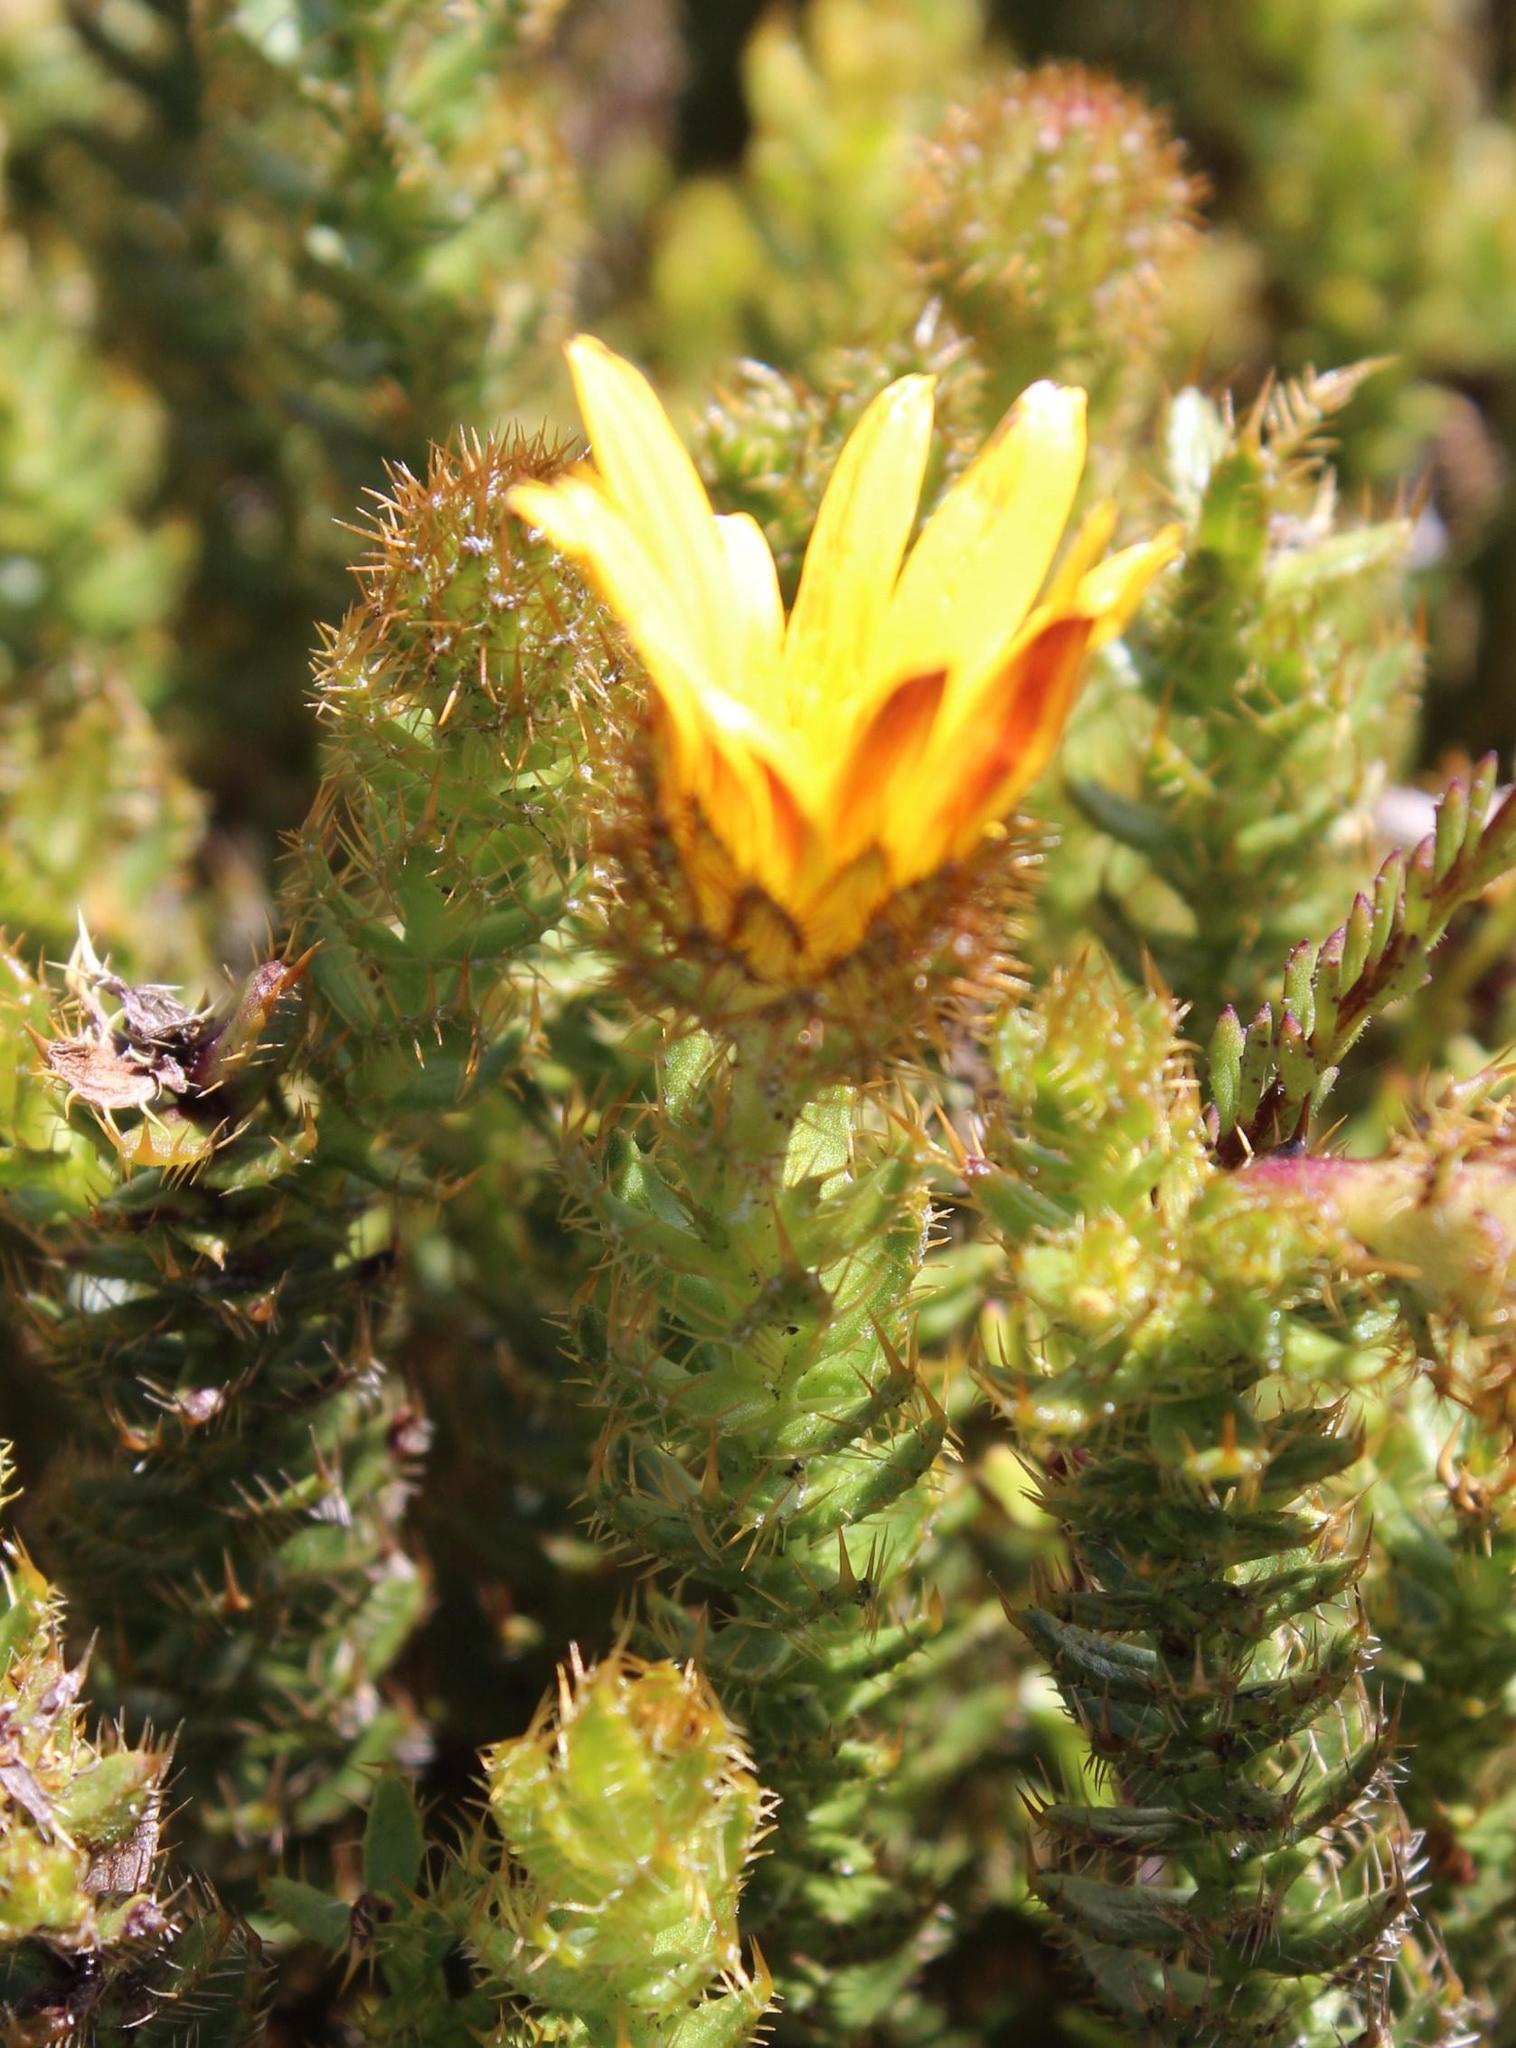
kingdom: Plantae
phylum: Tracheophyta
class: Magnoliopsida
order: Asterales
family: Asteraceae
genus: Cullumia
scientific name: Cullumia selago
